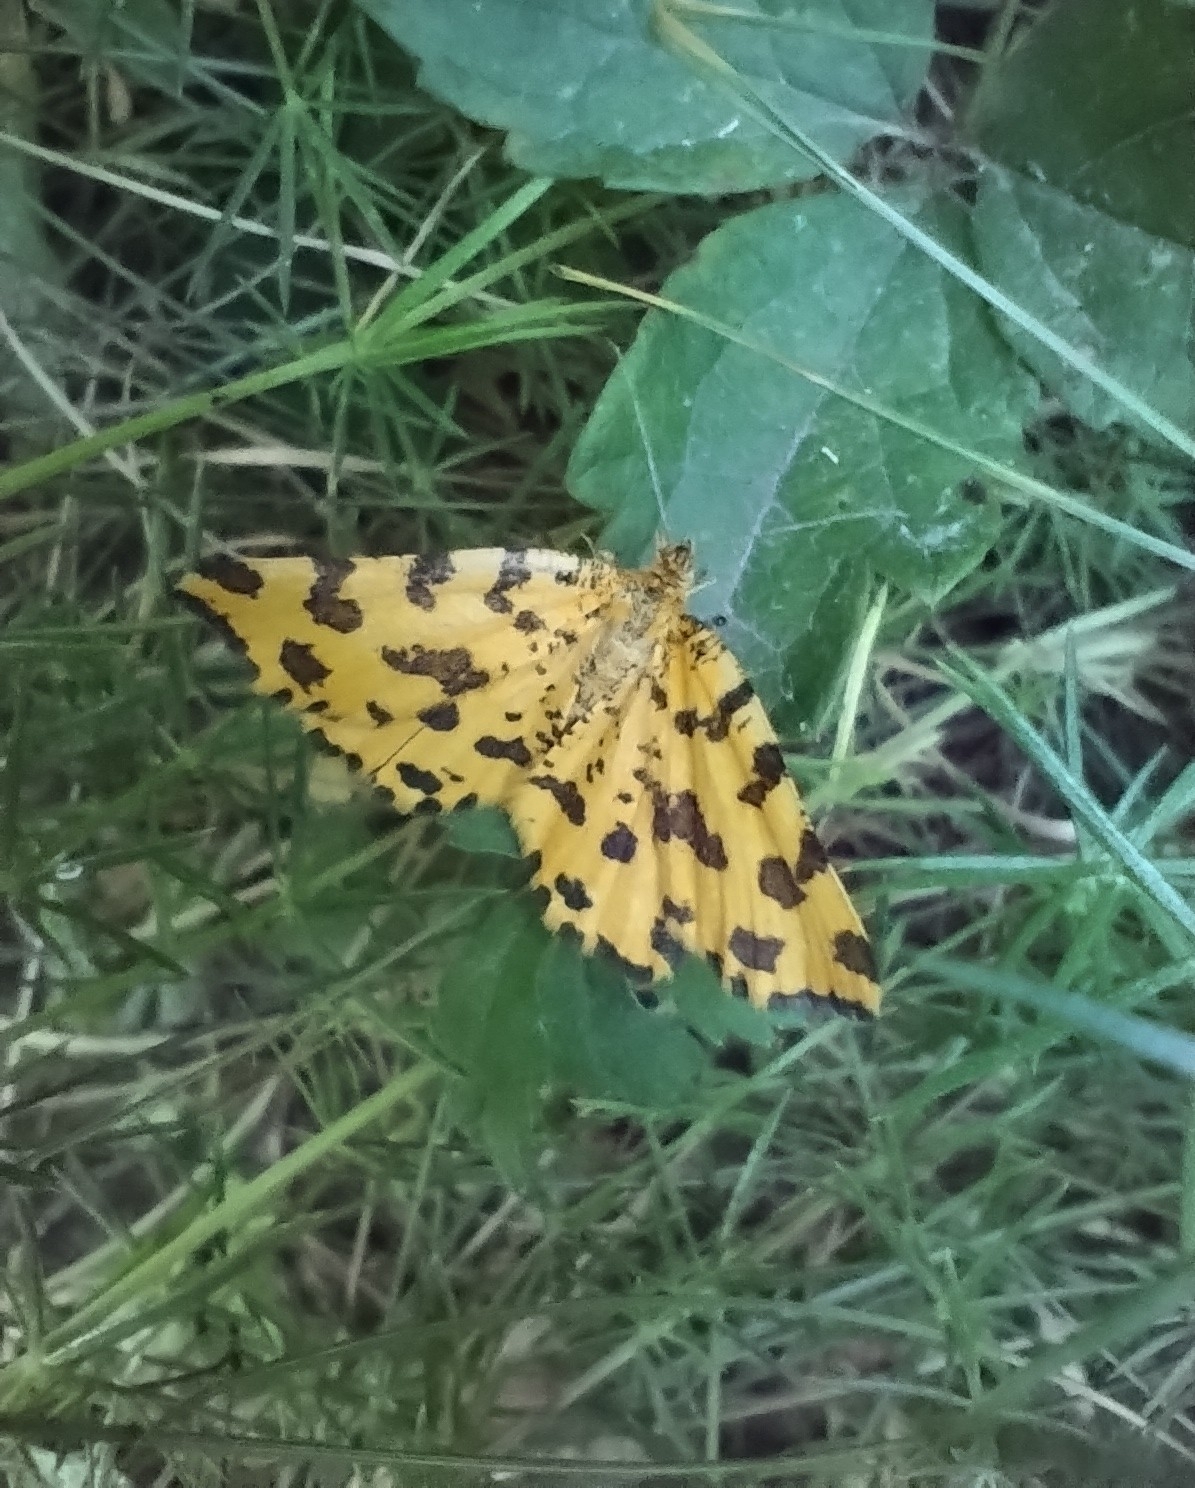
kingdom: Animalia
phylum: Arthropoda
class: Insecta
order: Lepidoptera
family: Geometridae
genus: Pseudopanthera
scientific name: Pseudopanthera macularia
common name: Speckled yellow
